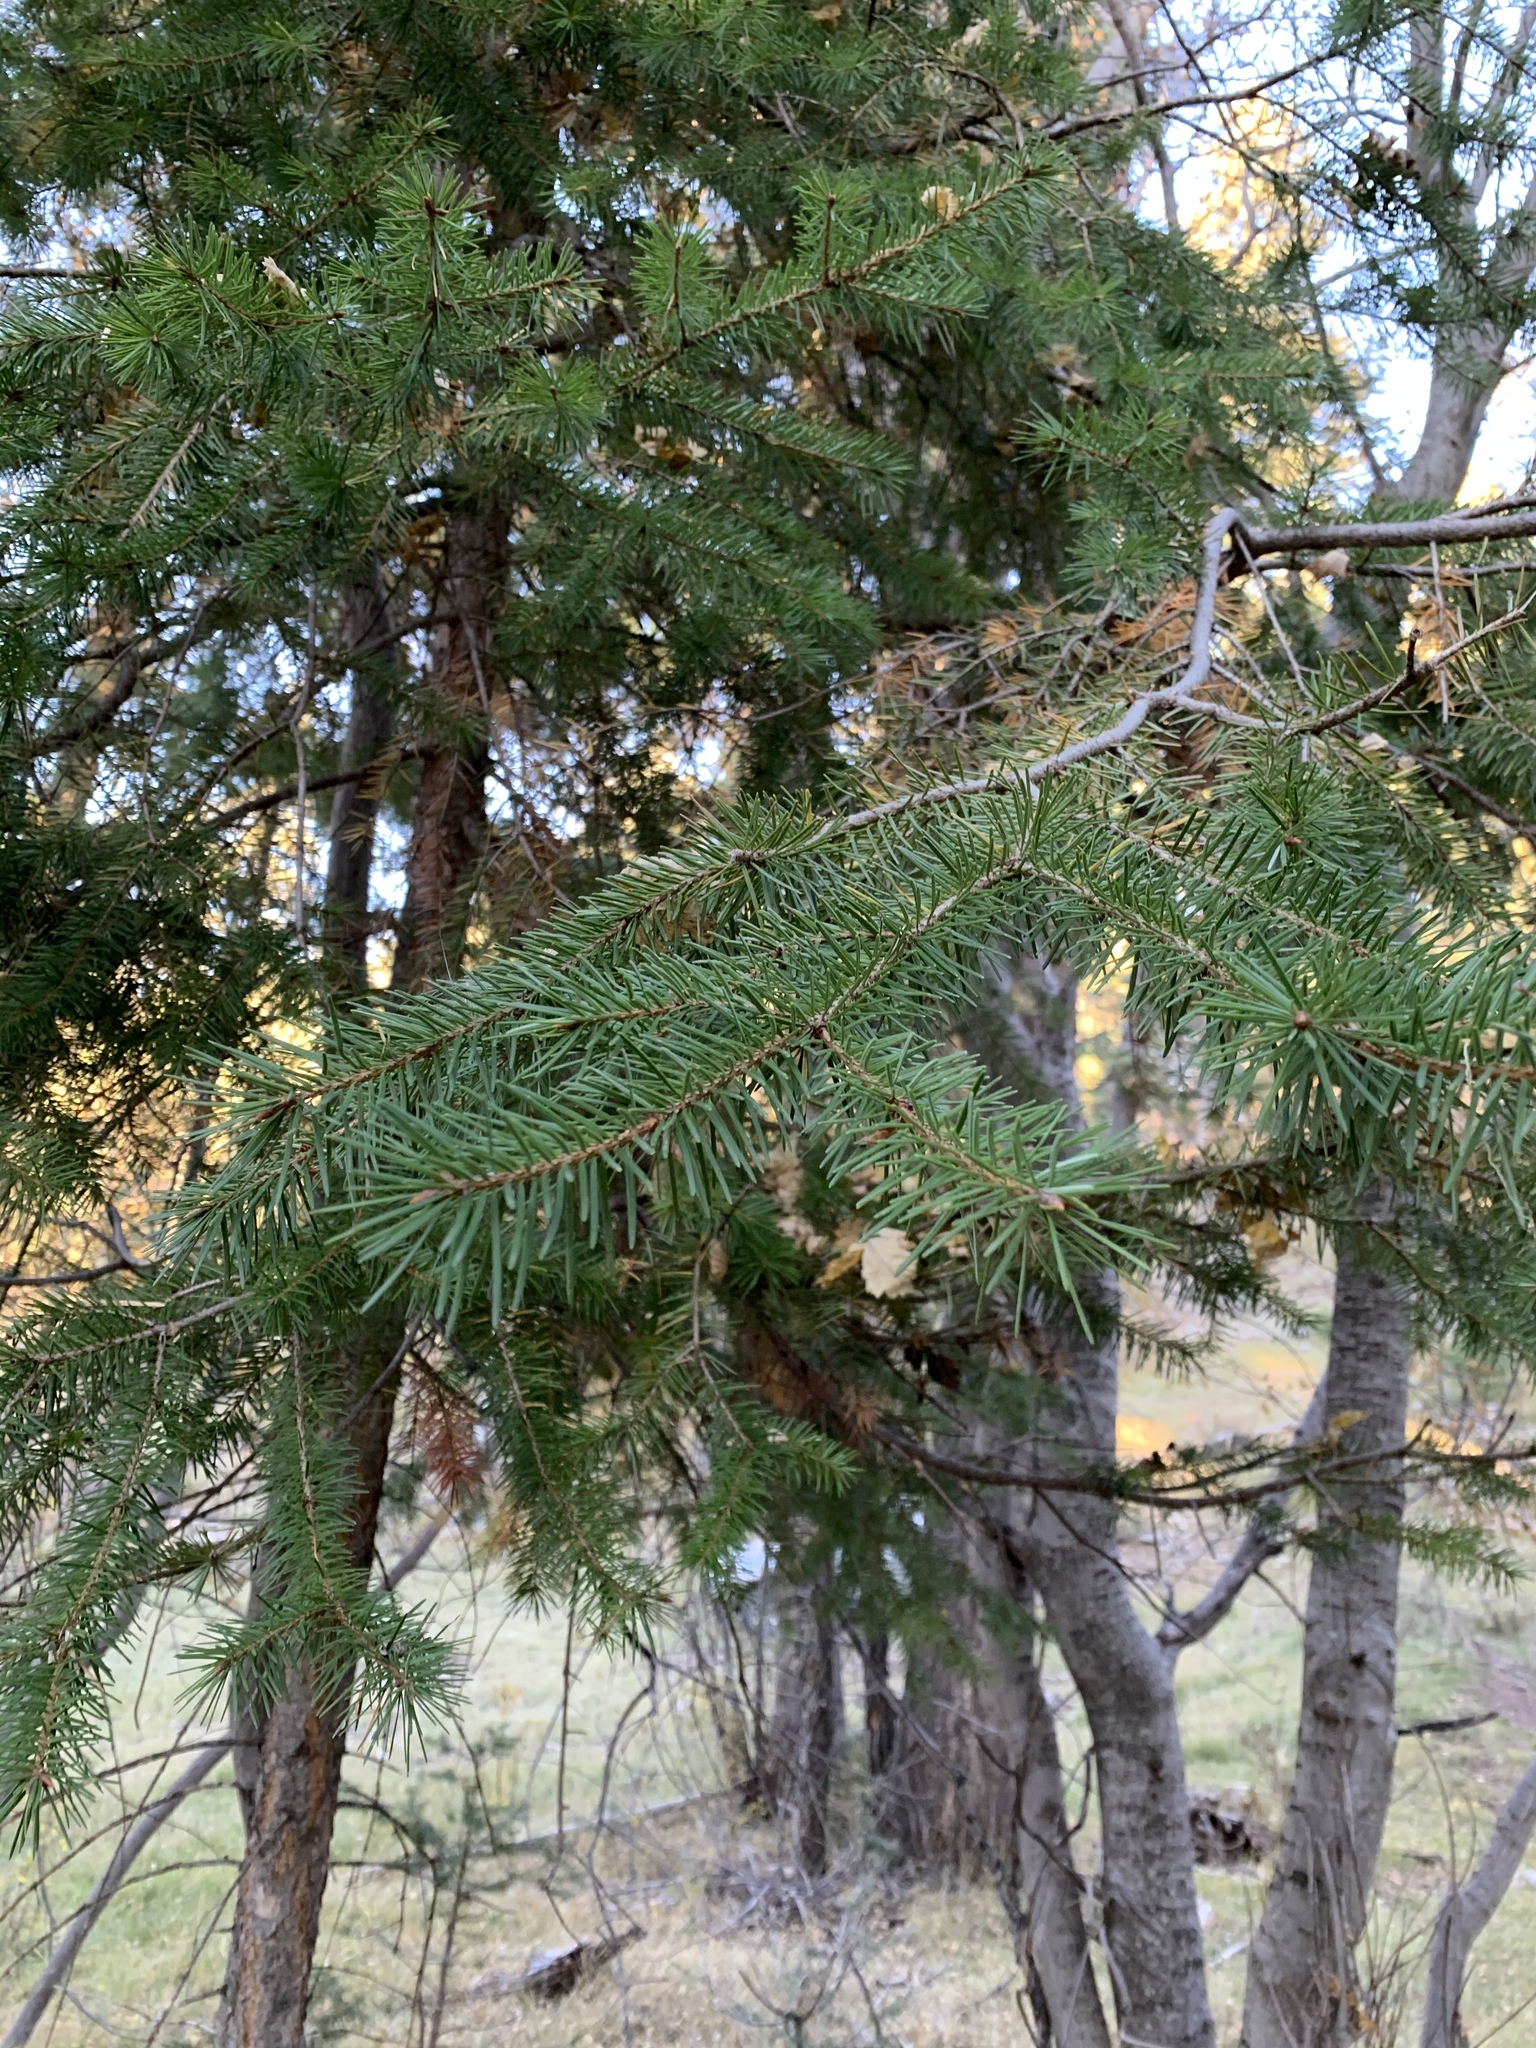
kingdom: Plantae
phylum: Tracheophyta
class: Pinopsida
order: Pinales
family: Pinaceae
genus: Pseudotsuga
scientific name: Pseudotsuga menziesii
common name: Douglas fir
